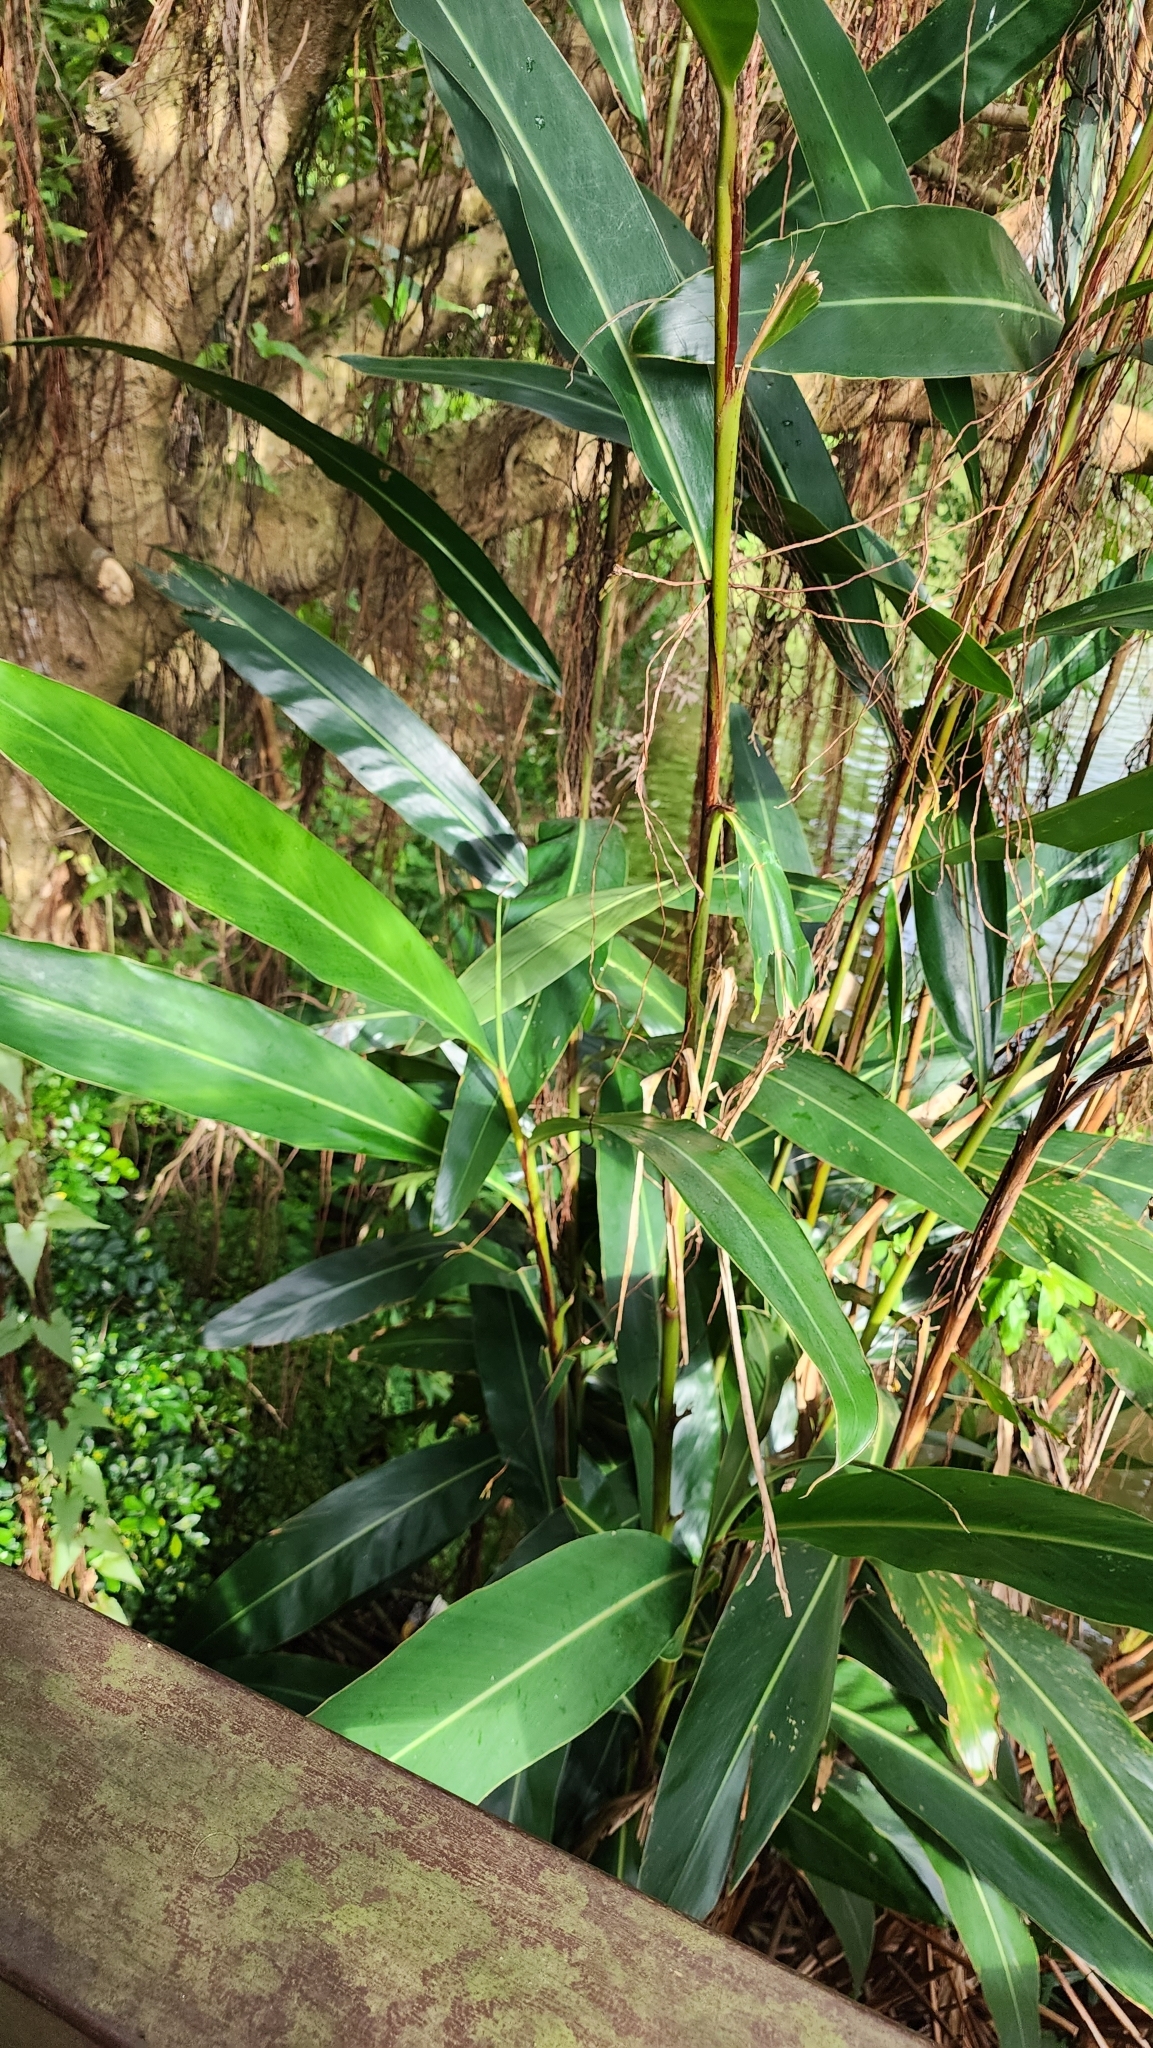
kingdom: Plantae
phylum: Tracheophyta
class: Liliopsida
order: Zingiberales
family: Zingiberaceae
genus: Alpinia
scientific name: Alpinia zerumbet
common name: Shellplant
